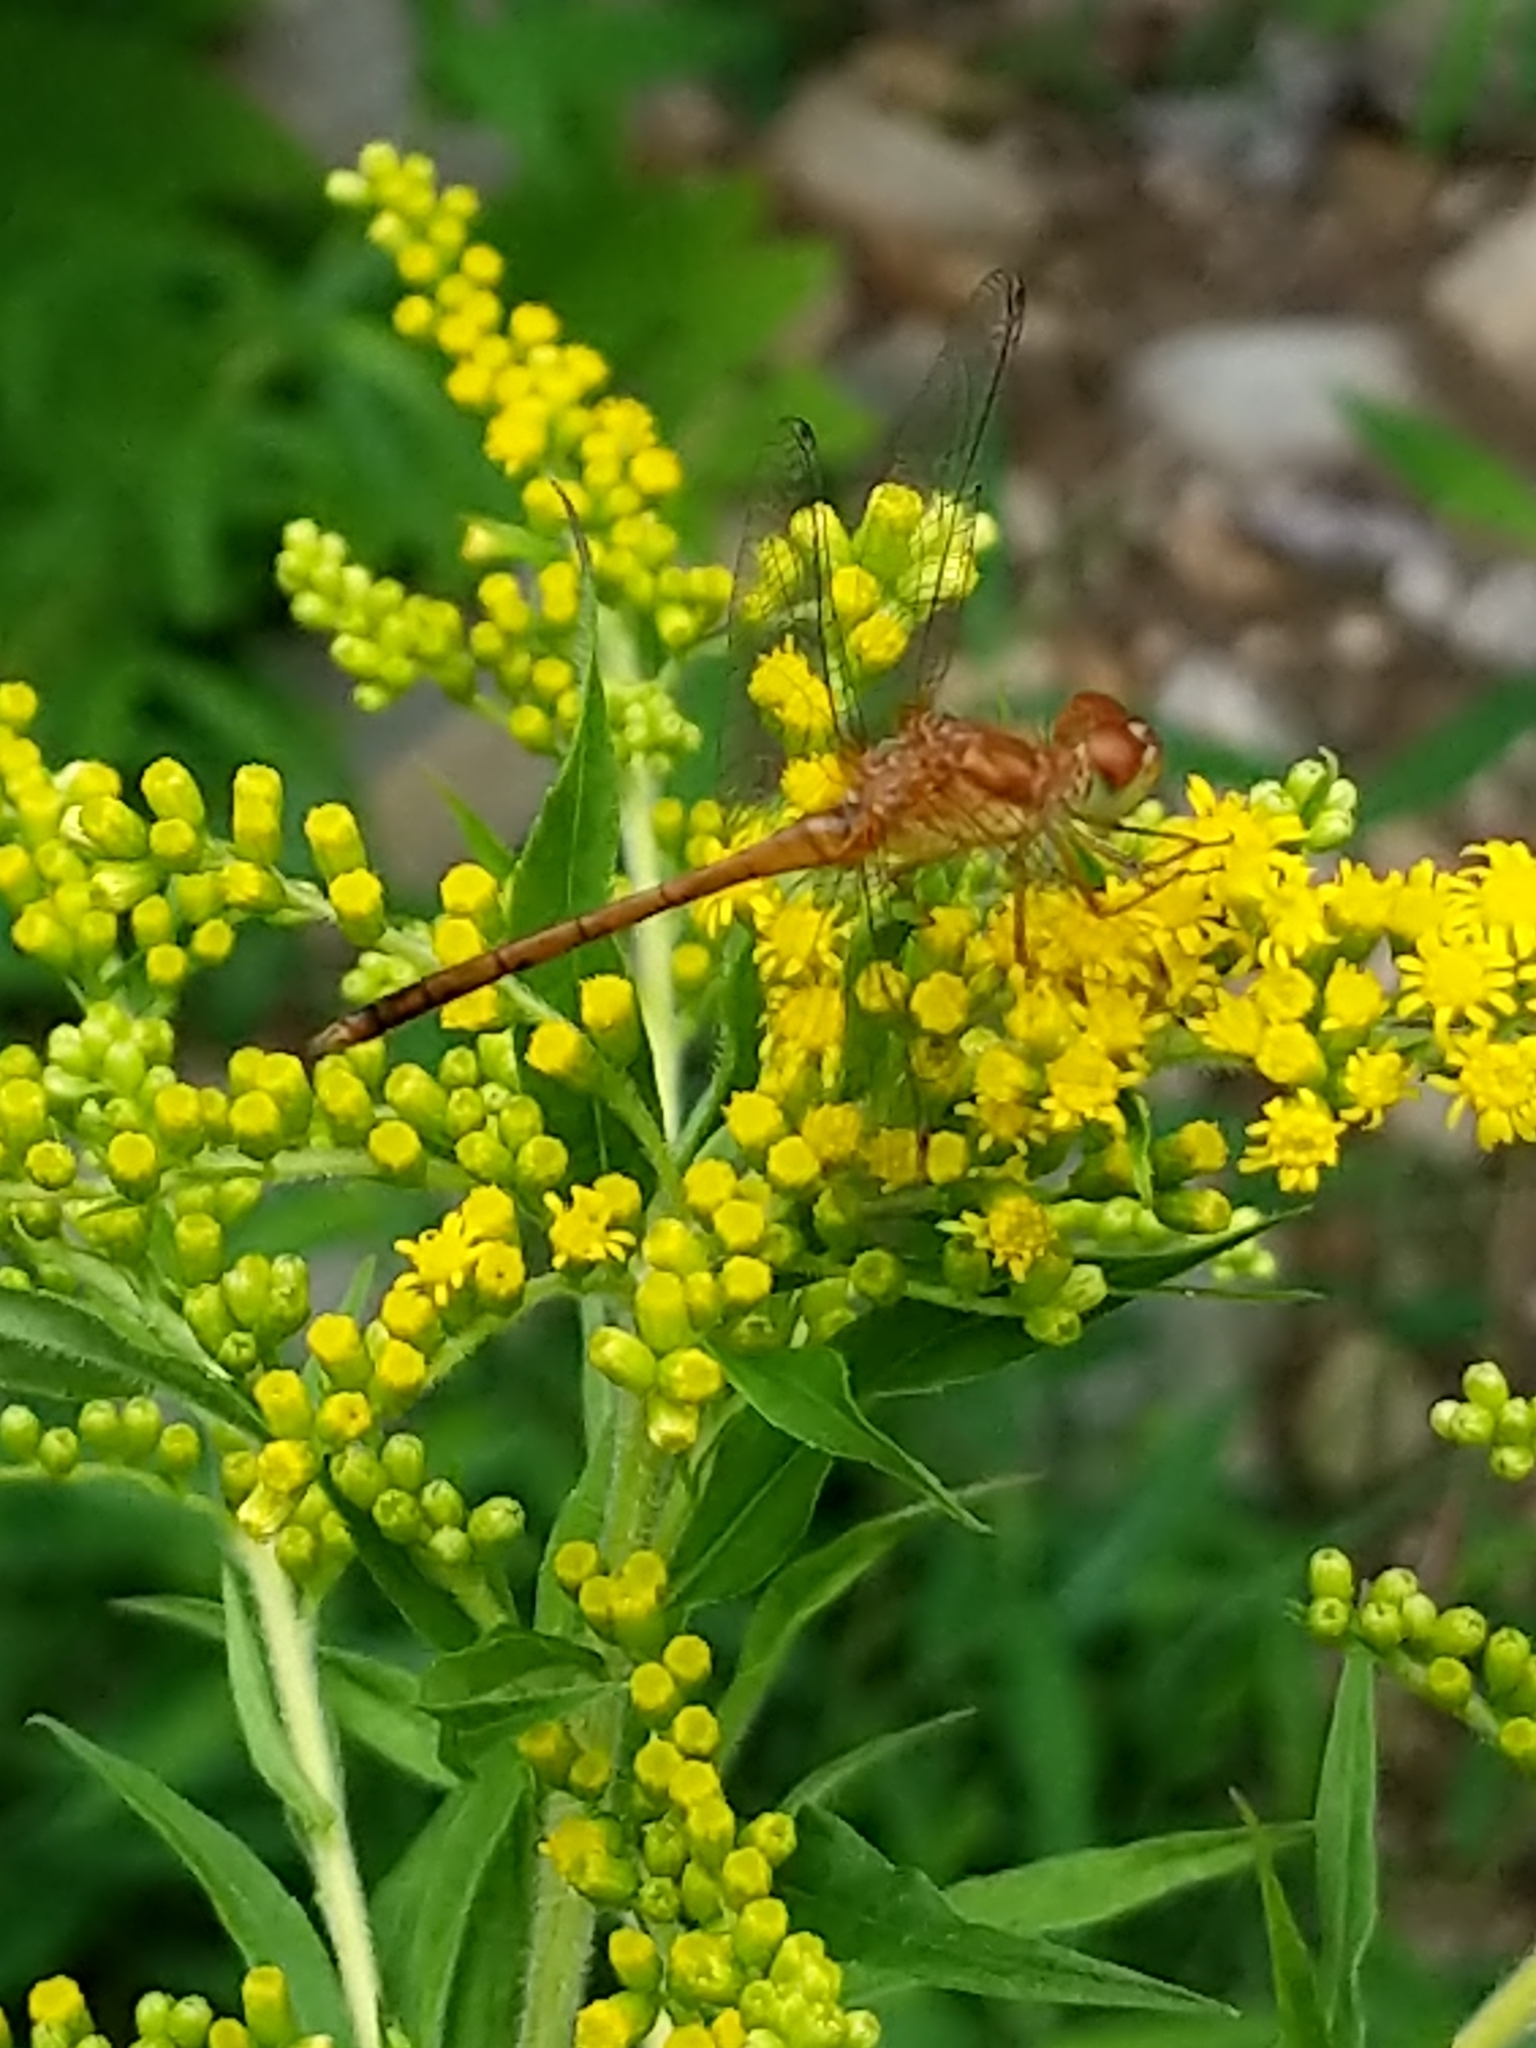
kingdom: Animalia
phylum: Arthropoda
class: Insecta
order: Odonata
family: Libellulidae
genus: Sympetrum
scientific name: Sympetrum vicinum
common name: Autumn meadowhawk
